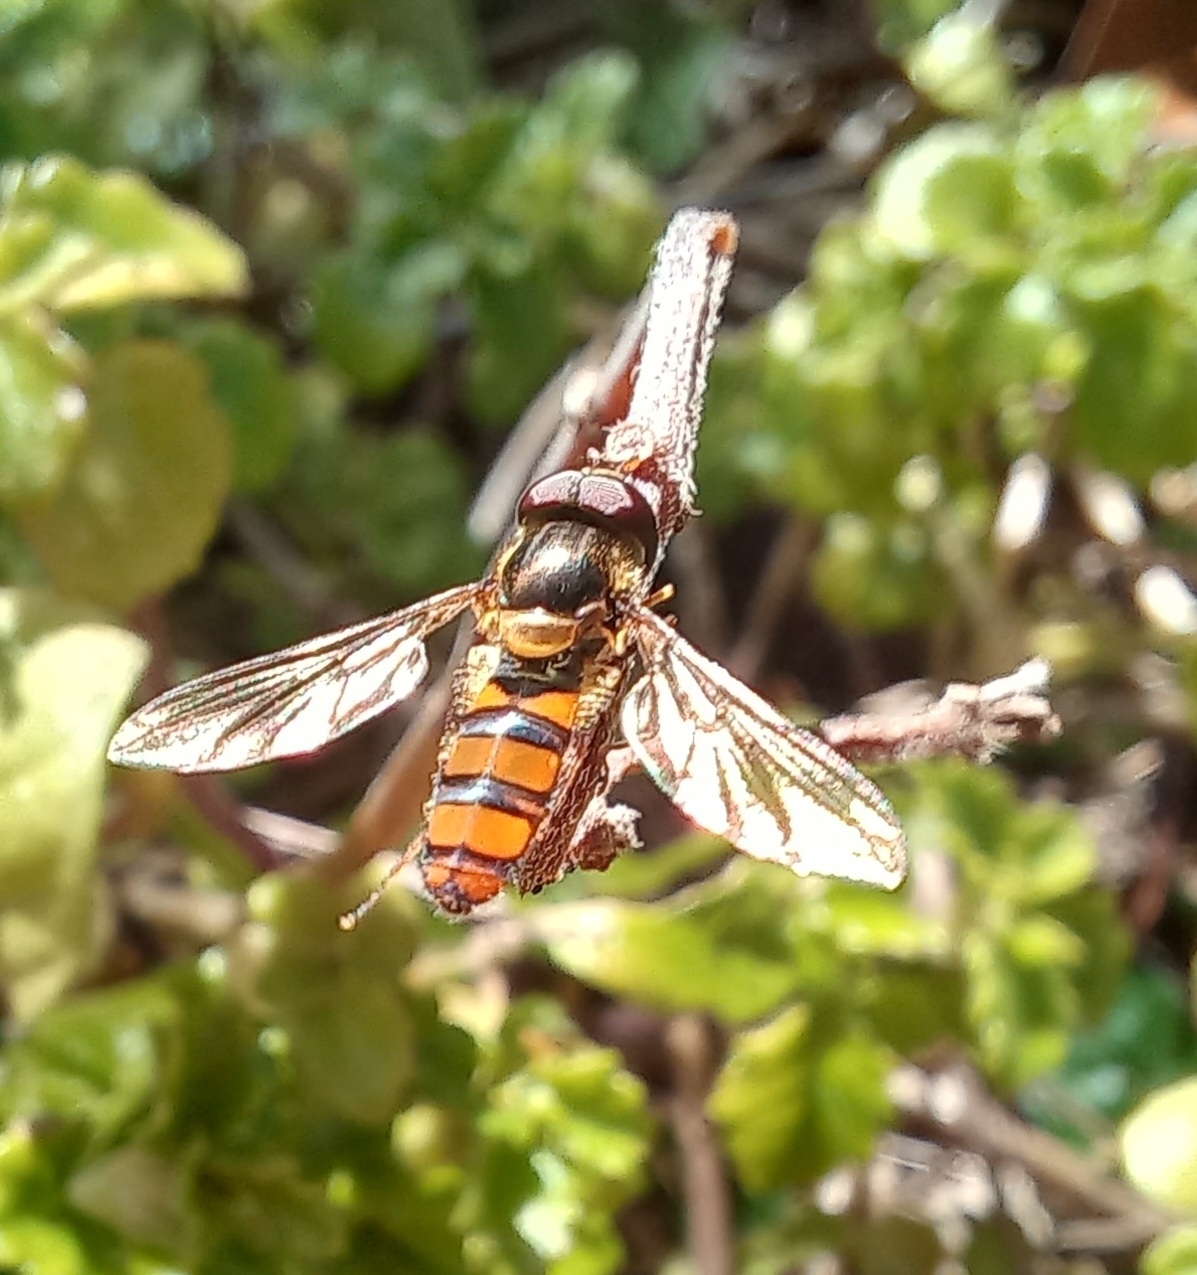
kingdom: Animalia
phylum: Arthropoda
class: Insecta
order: Diptera
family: Syrphidae
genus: Episyrphus
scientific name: Episyrphus trisectus
